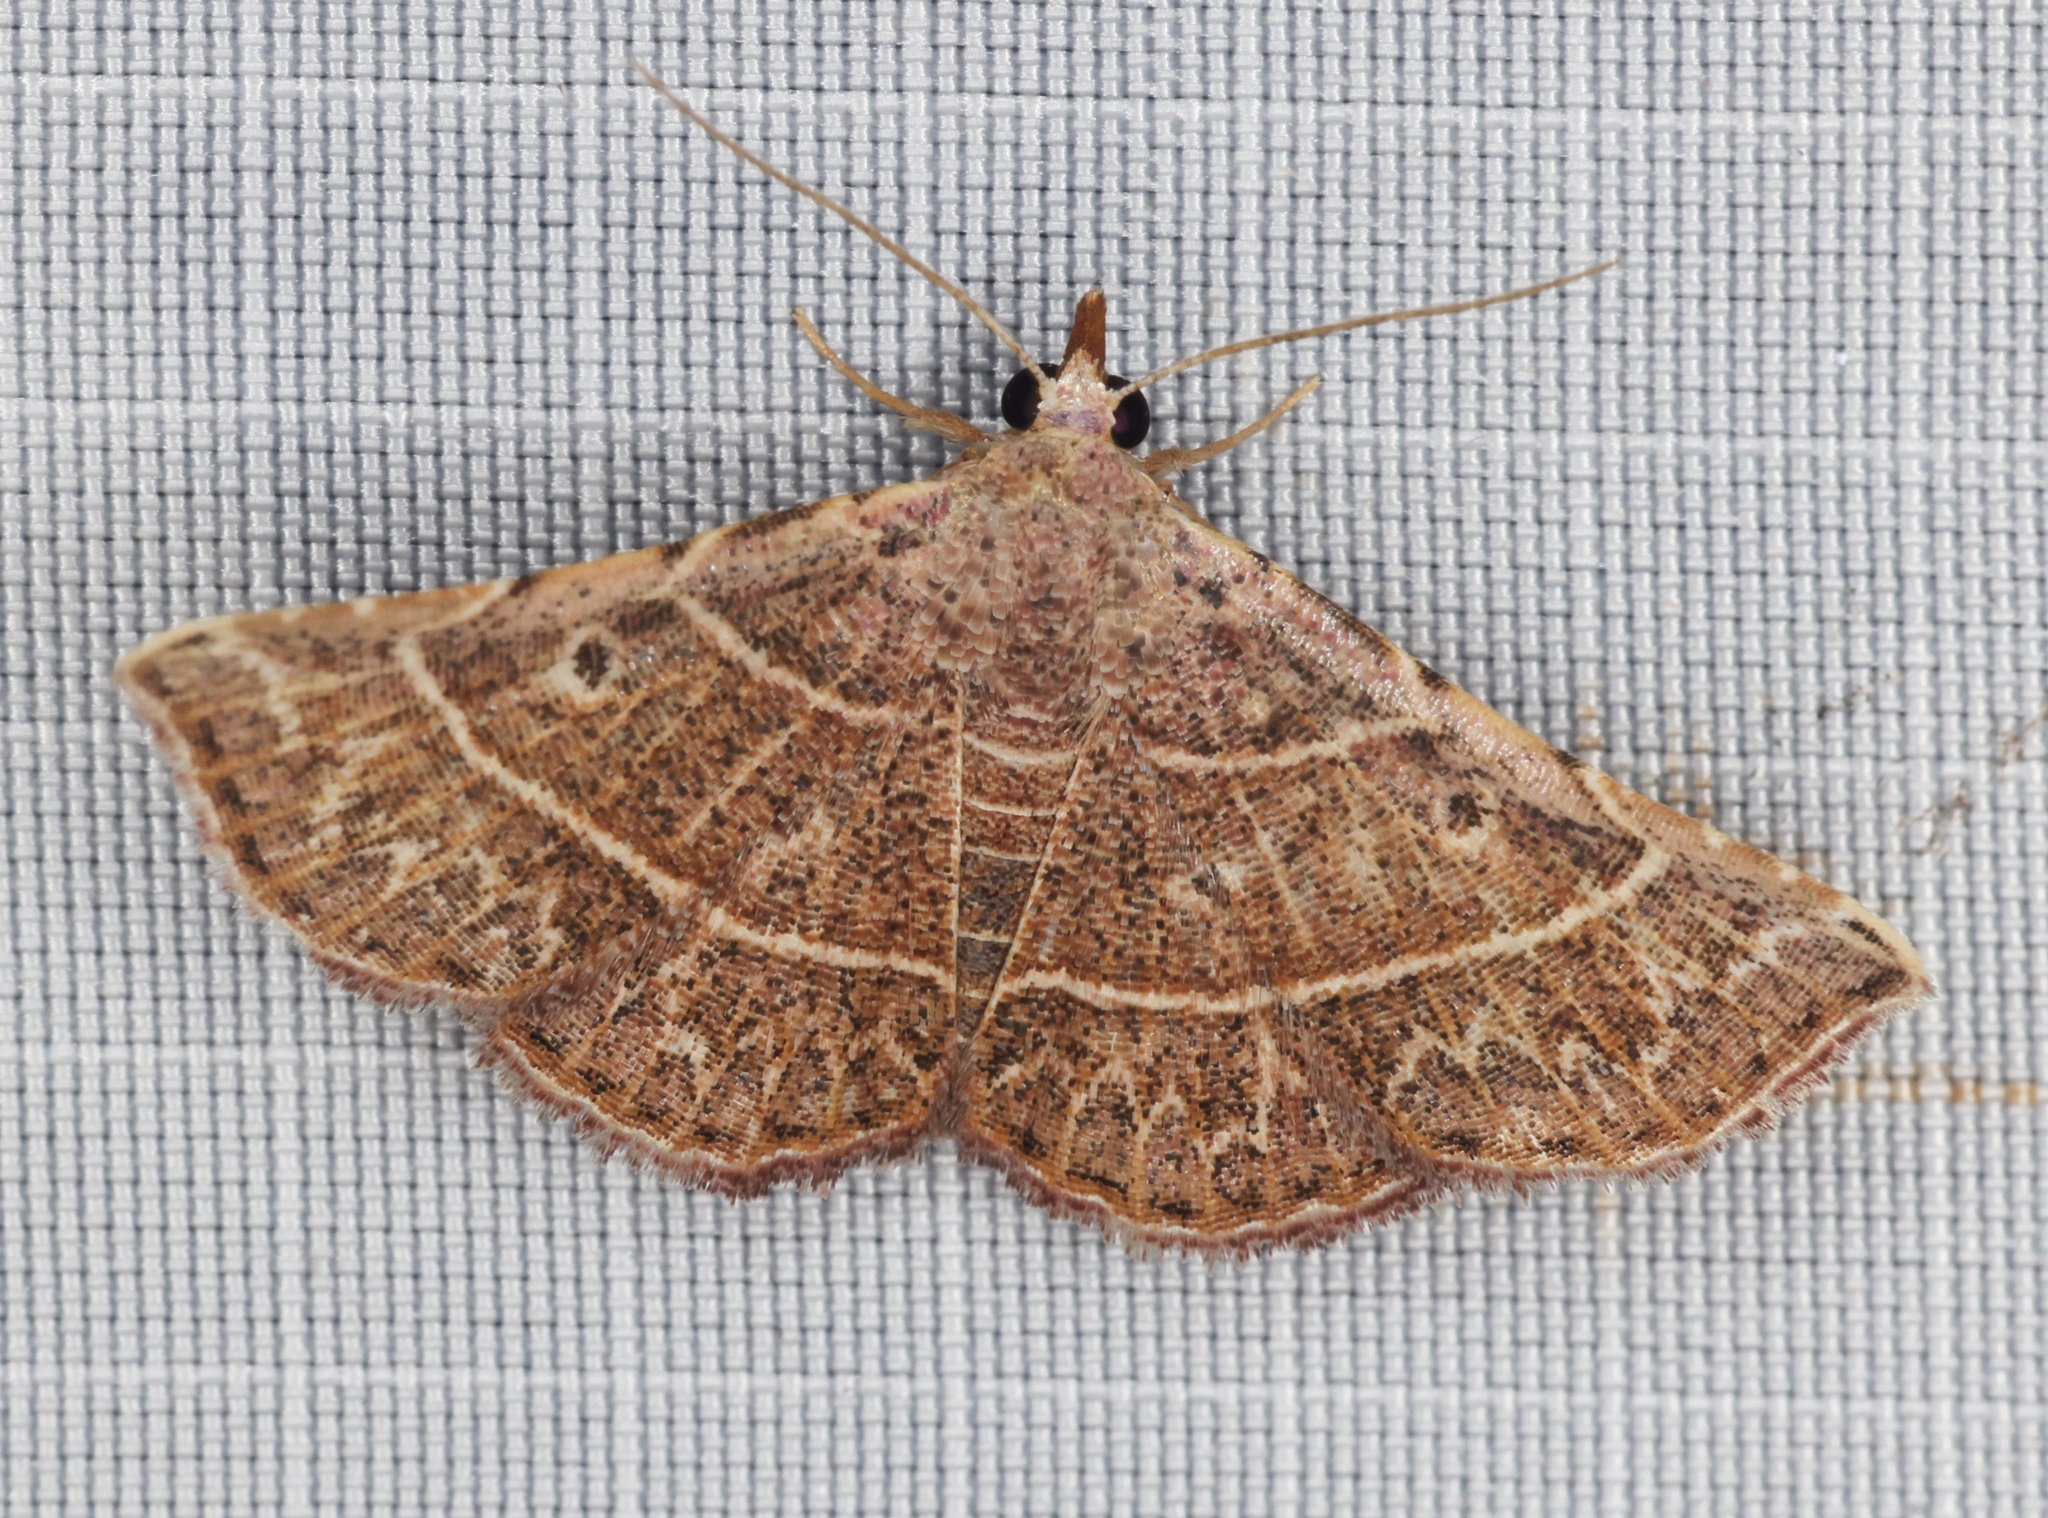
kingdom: Animalia
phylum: Arthropoda
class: Insecta
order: Lepidoptera
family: Erebidae
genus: Corgatha
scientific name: Corgatha dictaria
